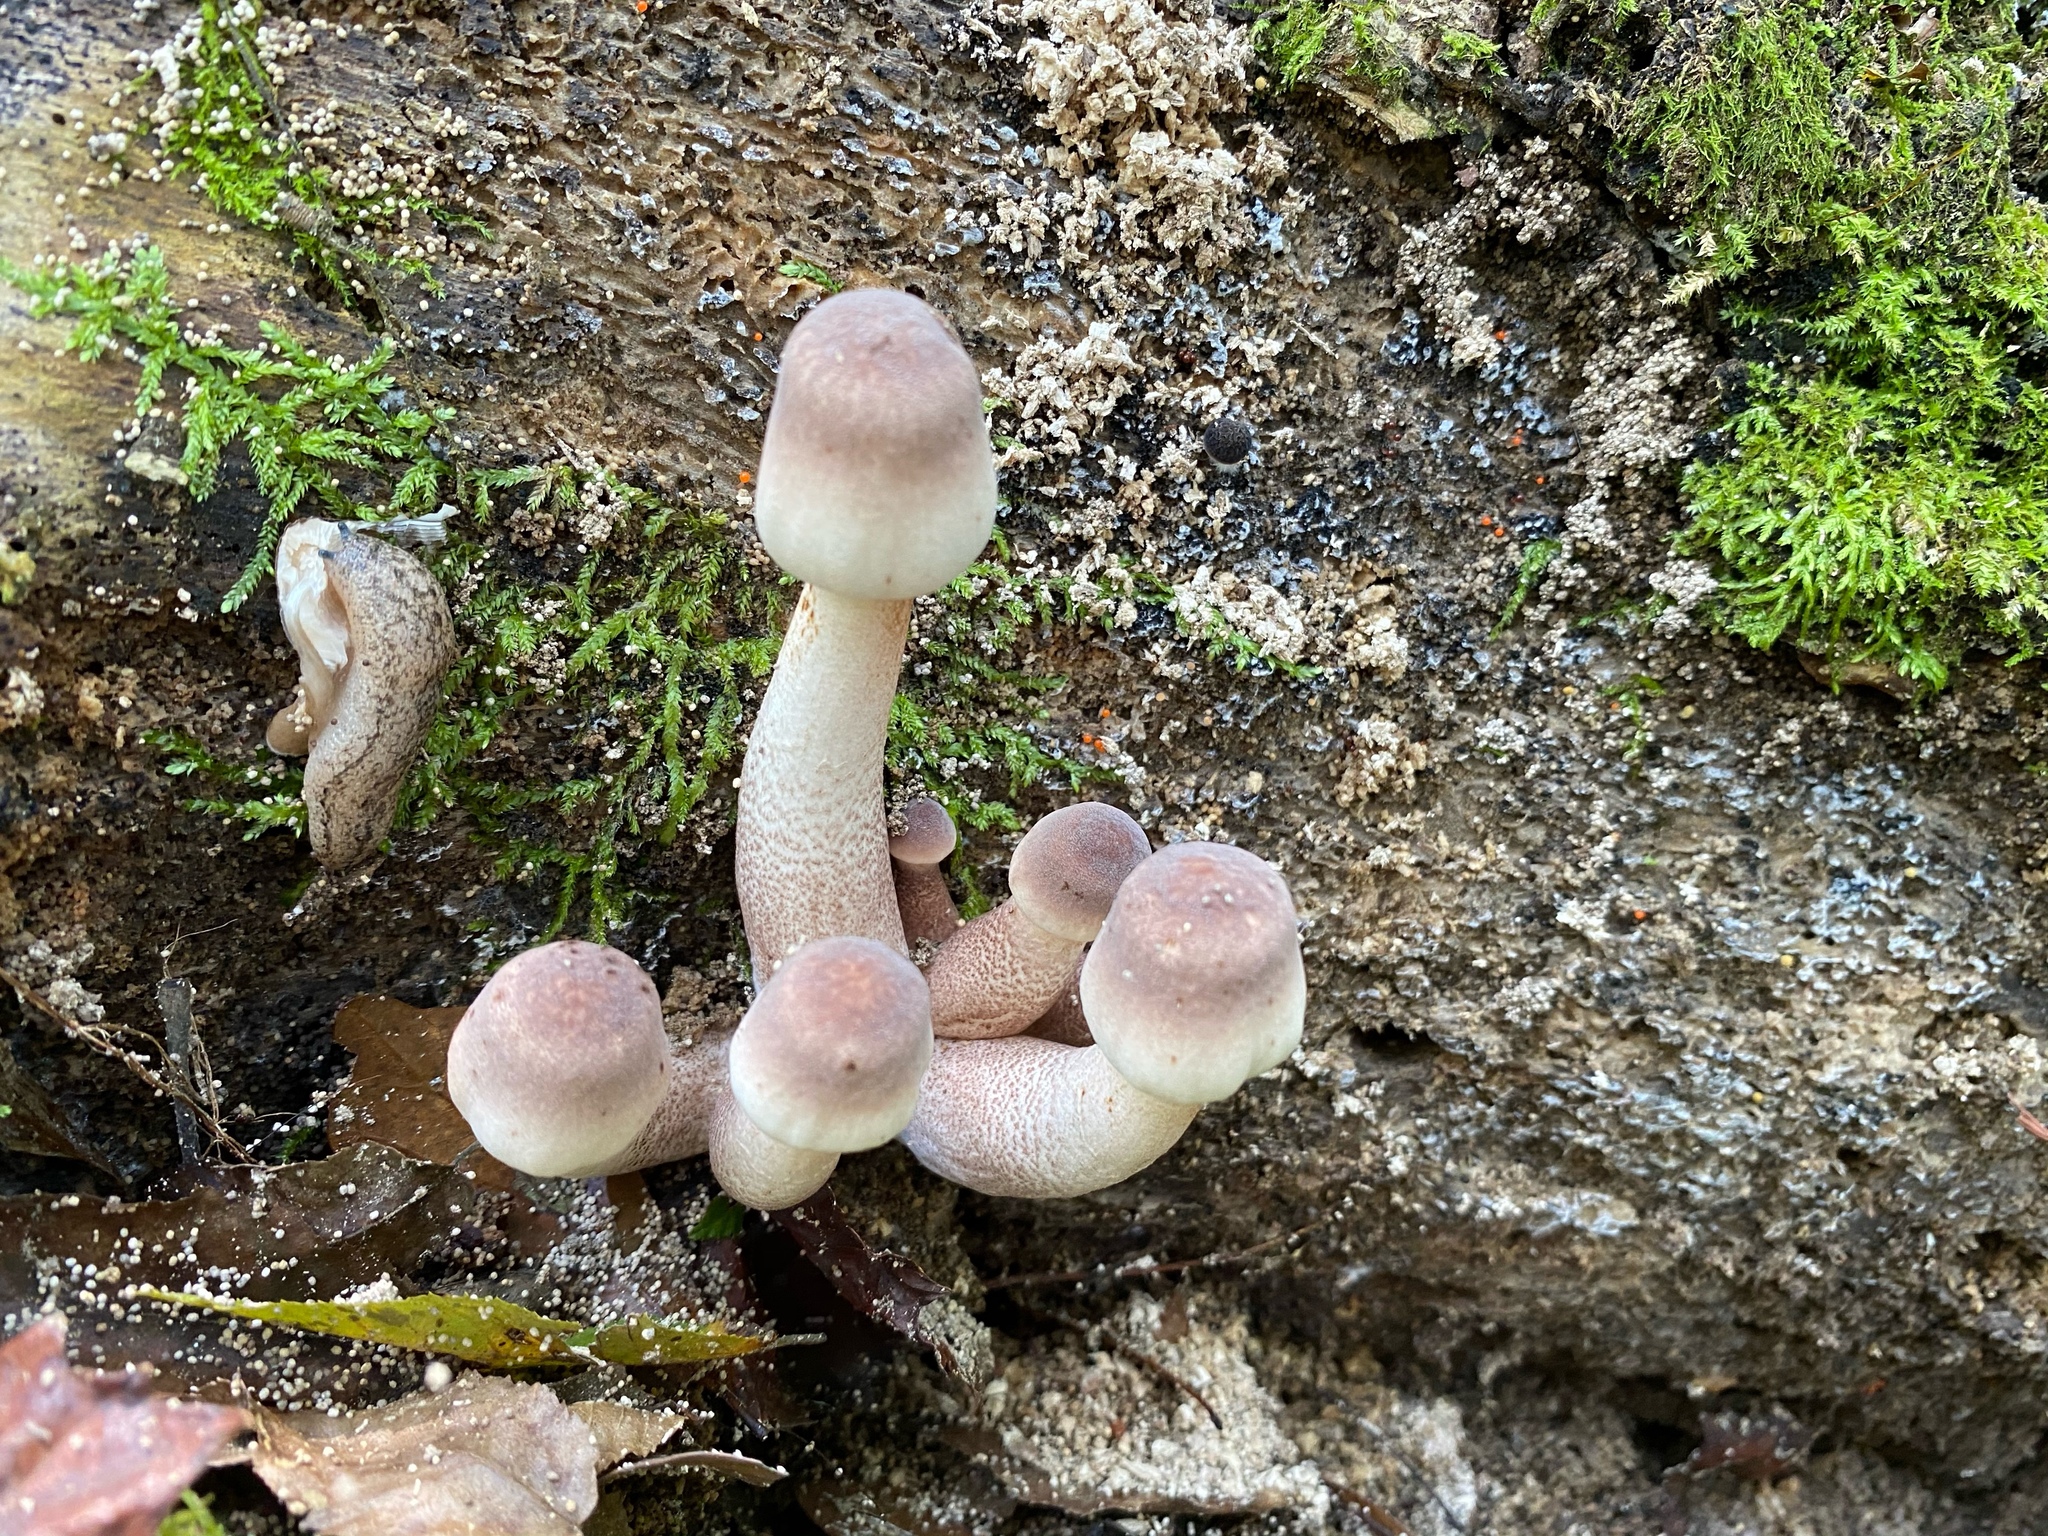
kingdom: Fungi
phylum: Basidiomycota
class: Agaricomycetes
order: Agaricales
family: Agaricaceae
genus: Leucoagaricus
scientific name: Leucoagaricus americanus
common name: Reddening lepiota
